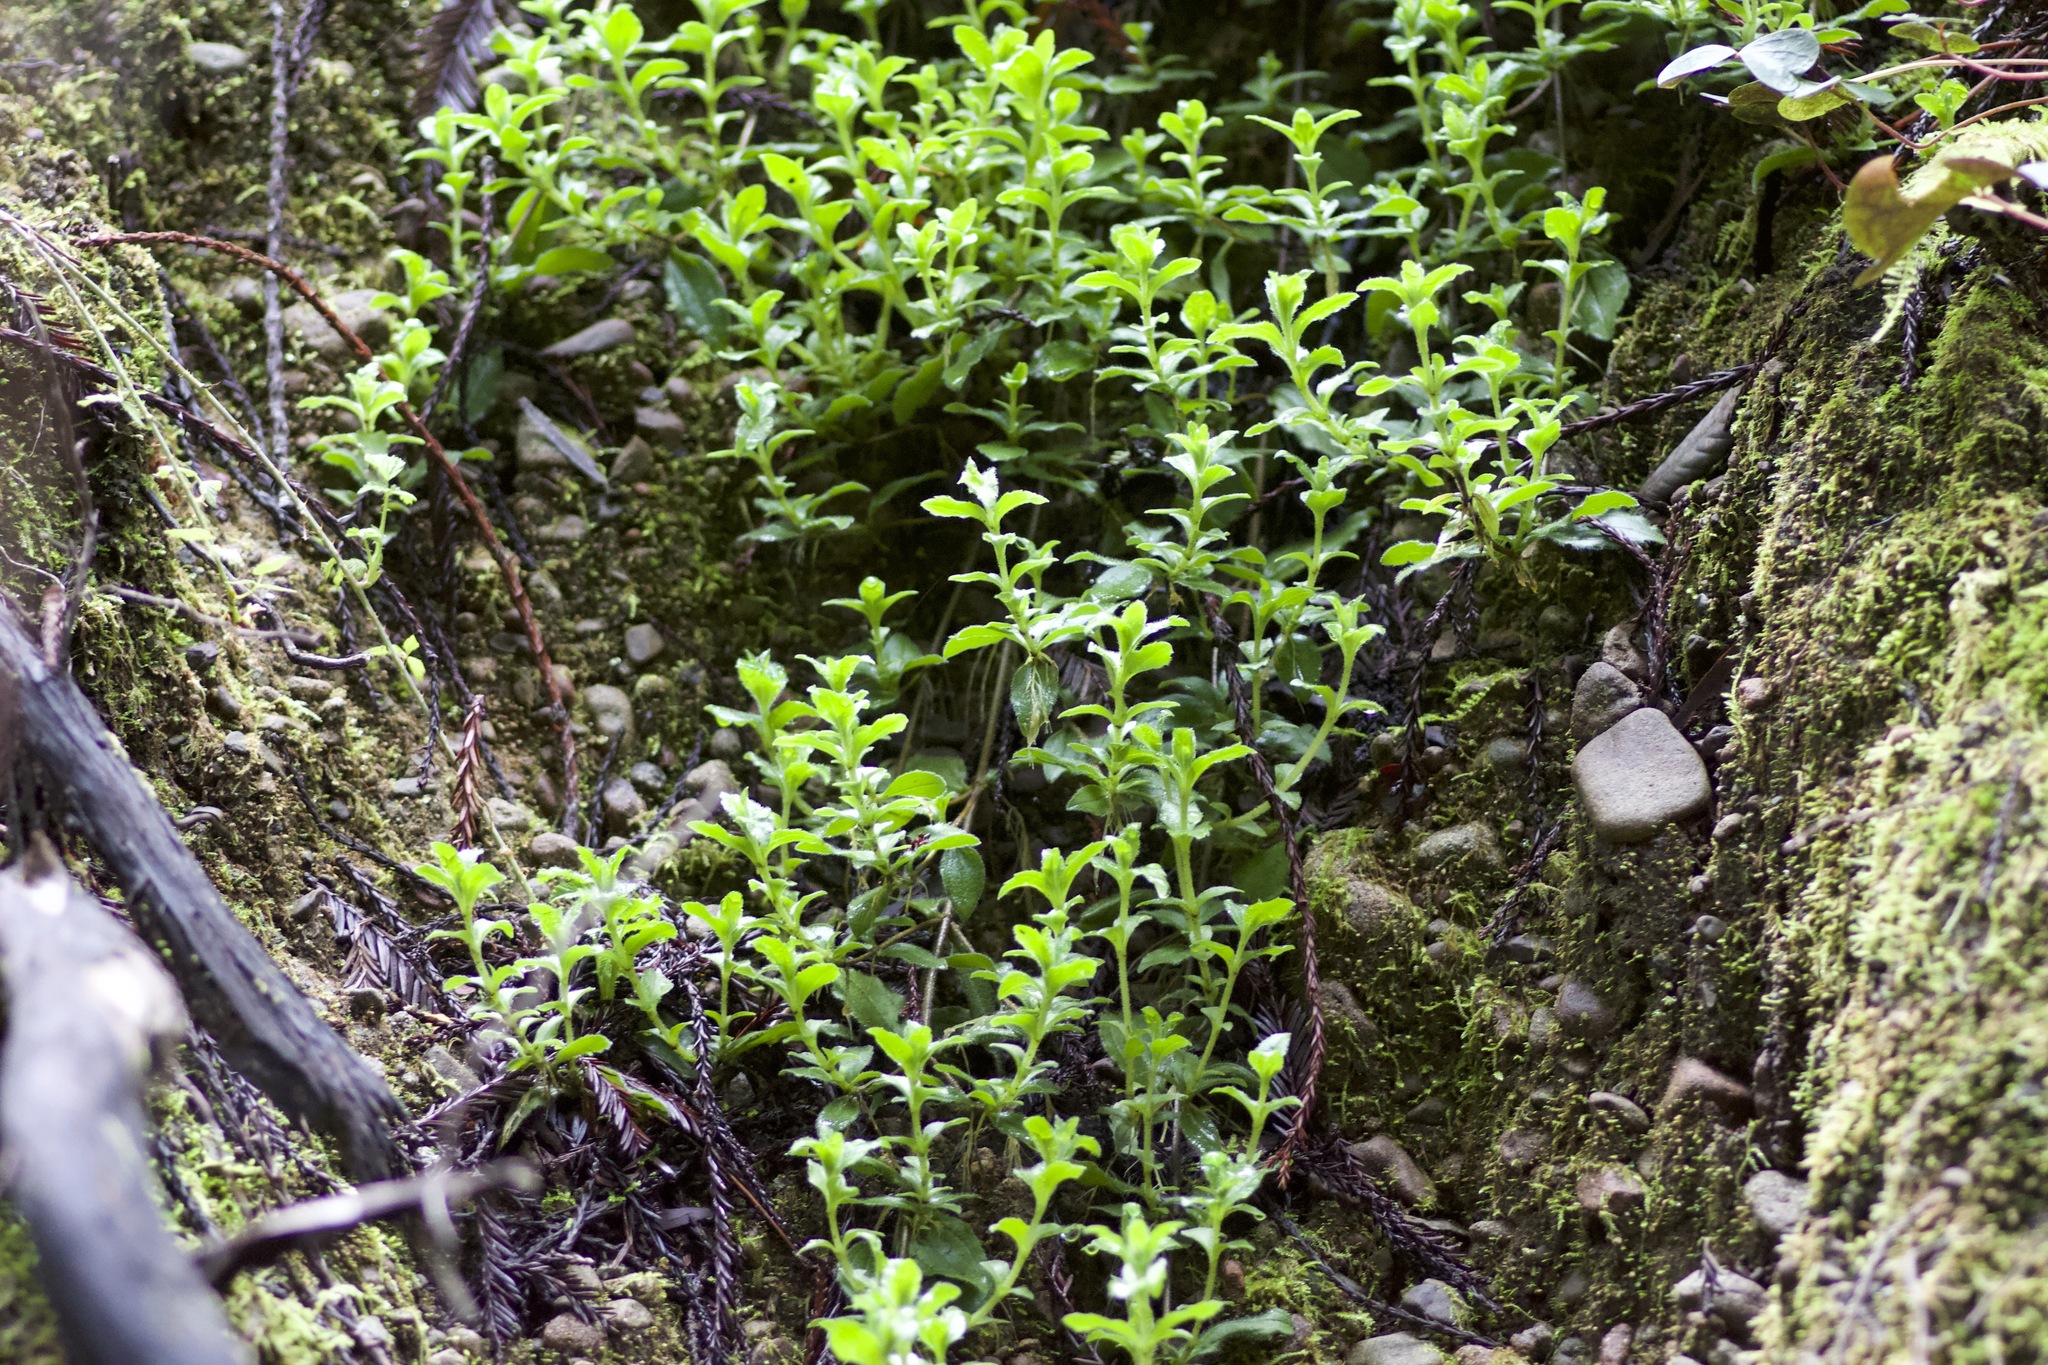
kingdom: Plantae
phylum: Tracheophyta
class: Magnoliopsida
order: Cornales
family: Hydrangeaceae
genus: Whipplea
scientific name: Whipplea modesta
